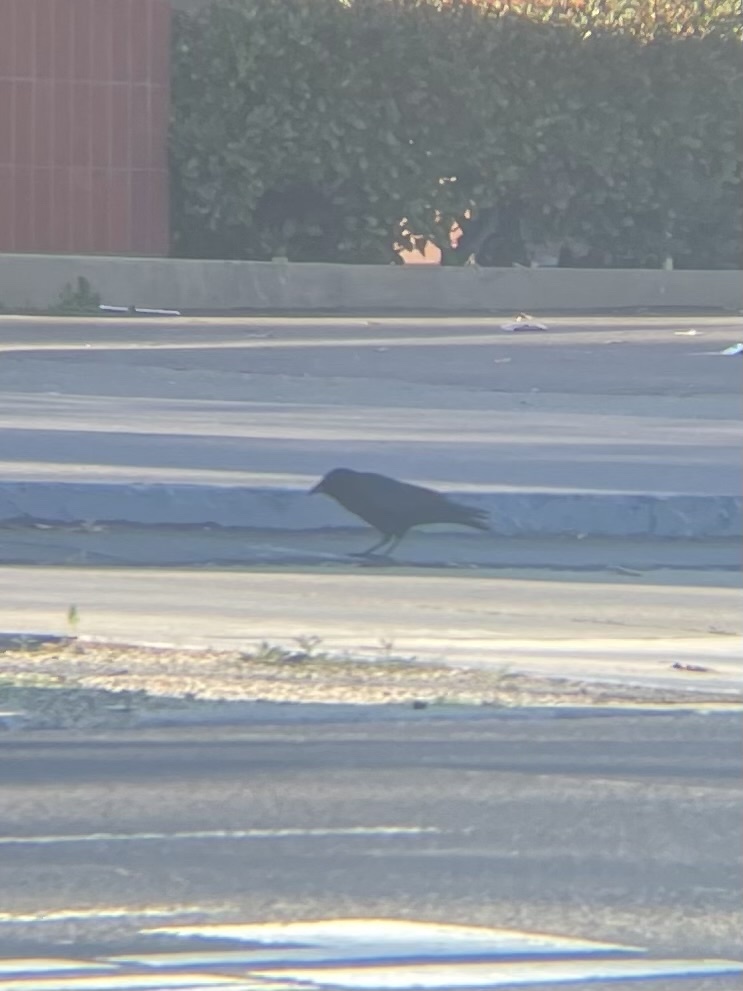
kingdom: Animalia
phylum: Chordata
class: Aves
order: Passeriformes
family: Corvidae
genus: Corvus
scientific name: Corvus brachyrhynchos
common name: American crow
